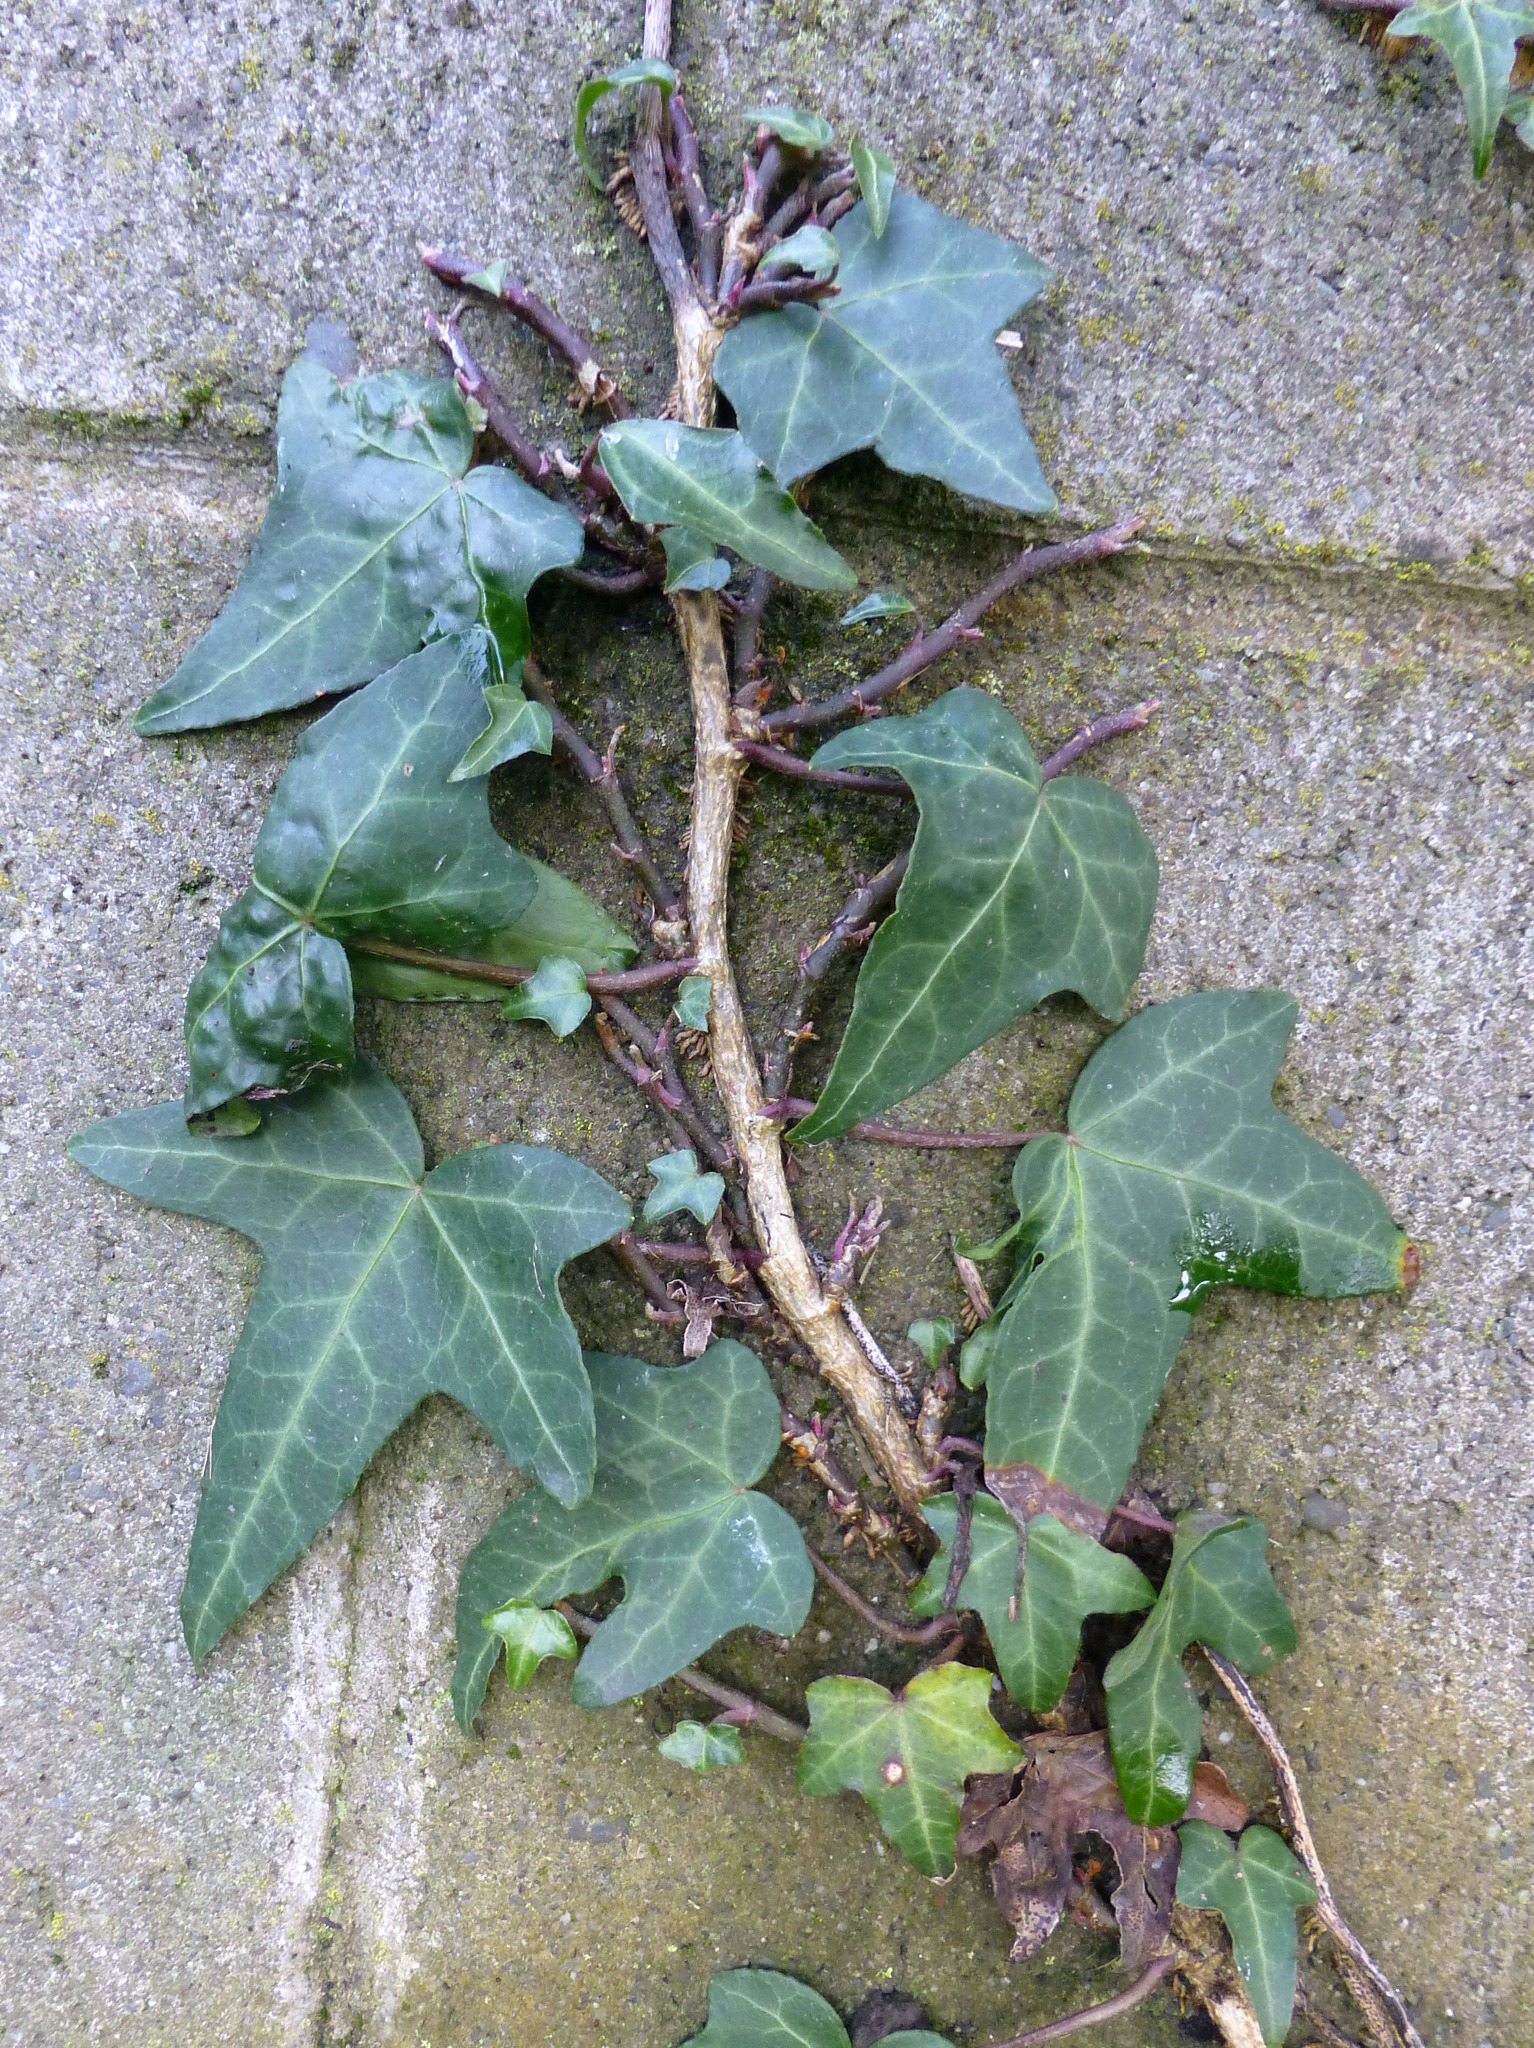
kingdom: Plantae
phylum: Tracheophyta
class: Magnoliopsida
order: Apiales
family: Araliaceae
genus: Hedera
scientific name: Hedera helix
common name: Ivy
